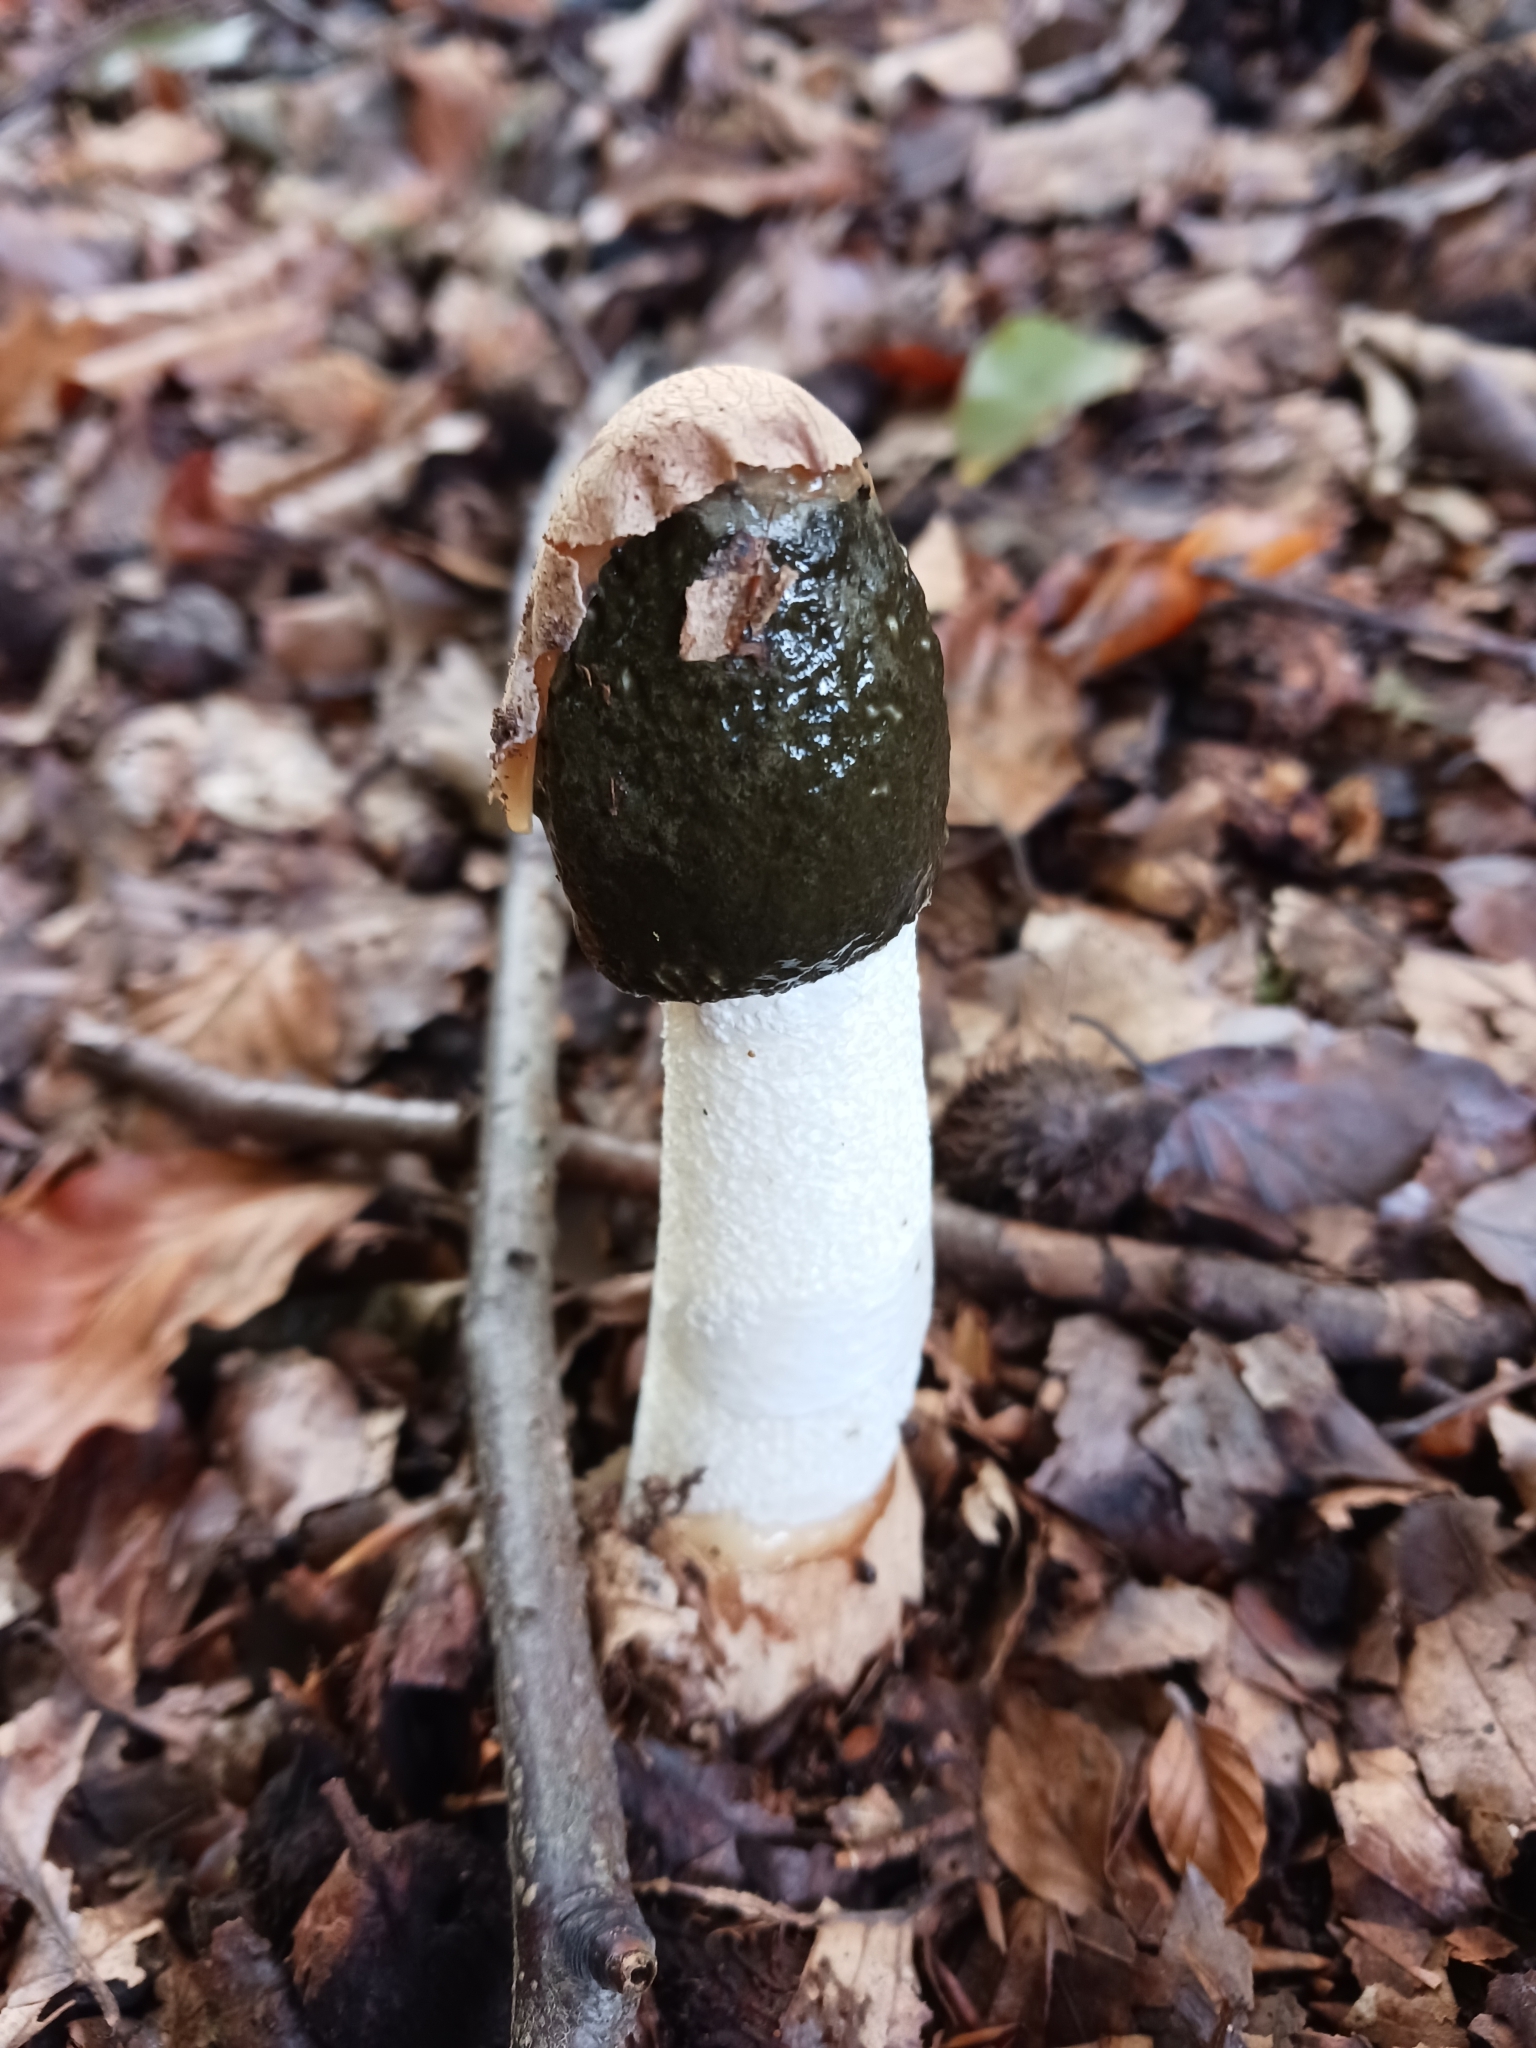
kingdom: Fungi
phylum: Basidiomycota
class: Agaricomycetes
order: Phallales
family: Phallaceae
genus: Phallus
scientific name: Phallus impudicus
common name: Common stinkhorn
